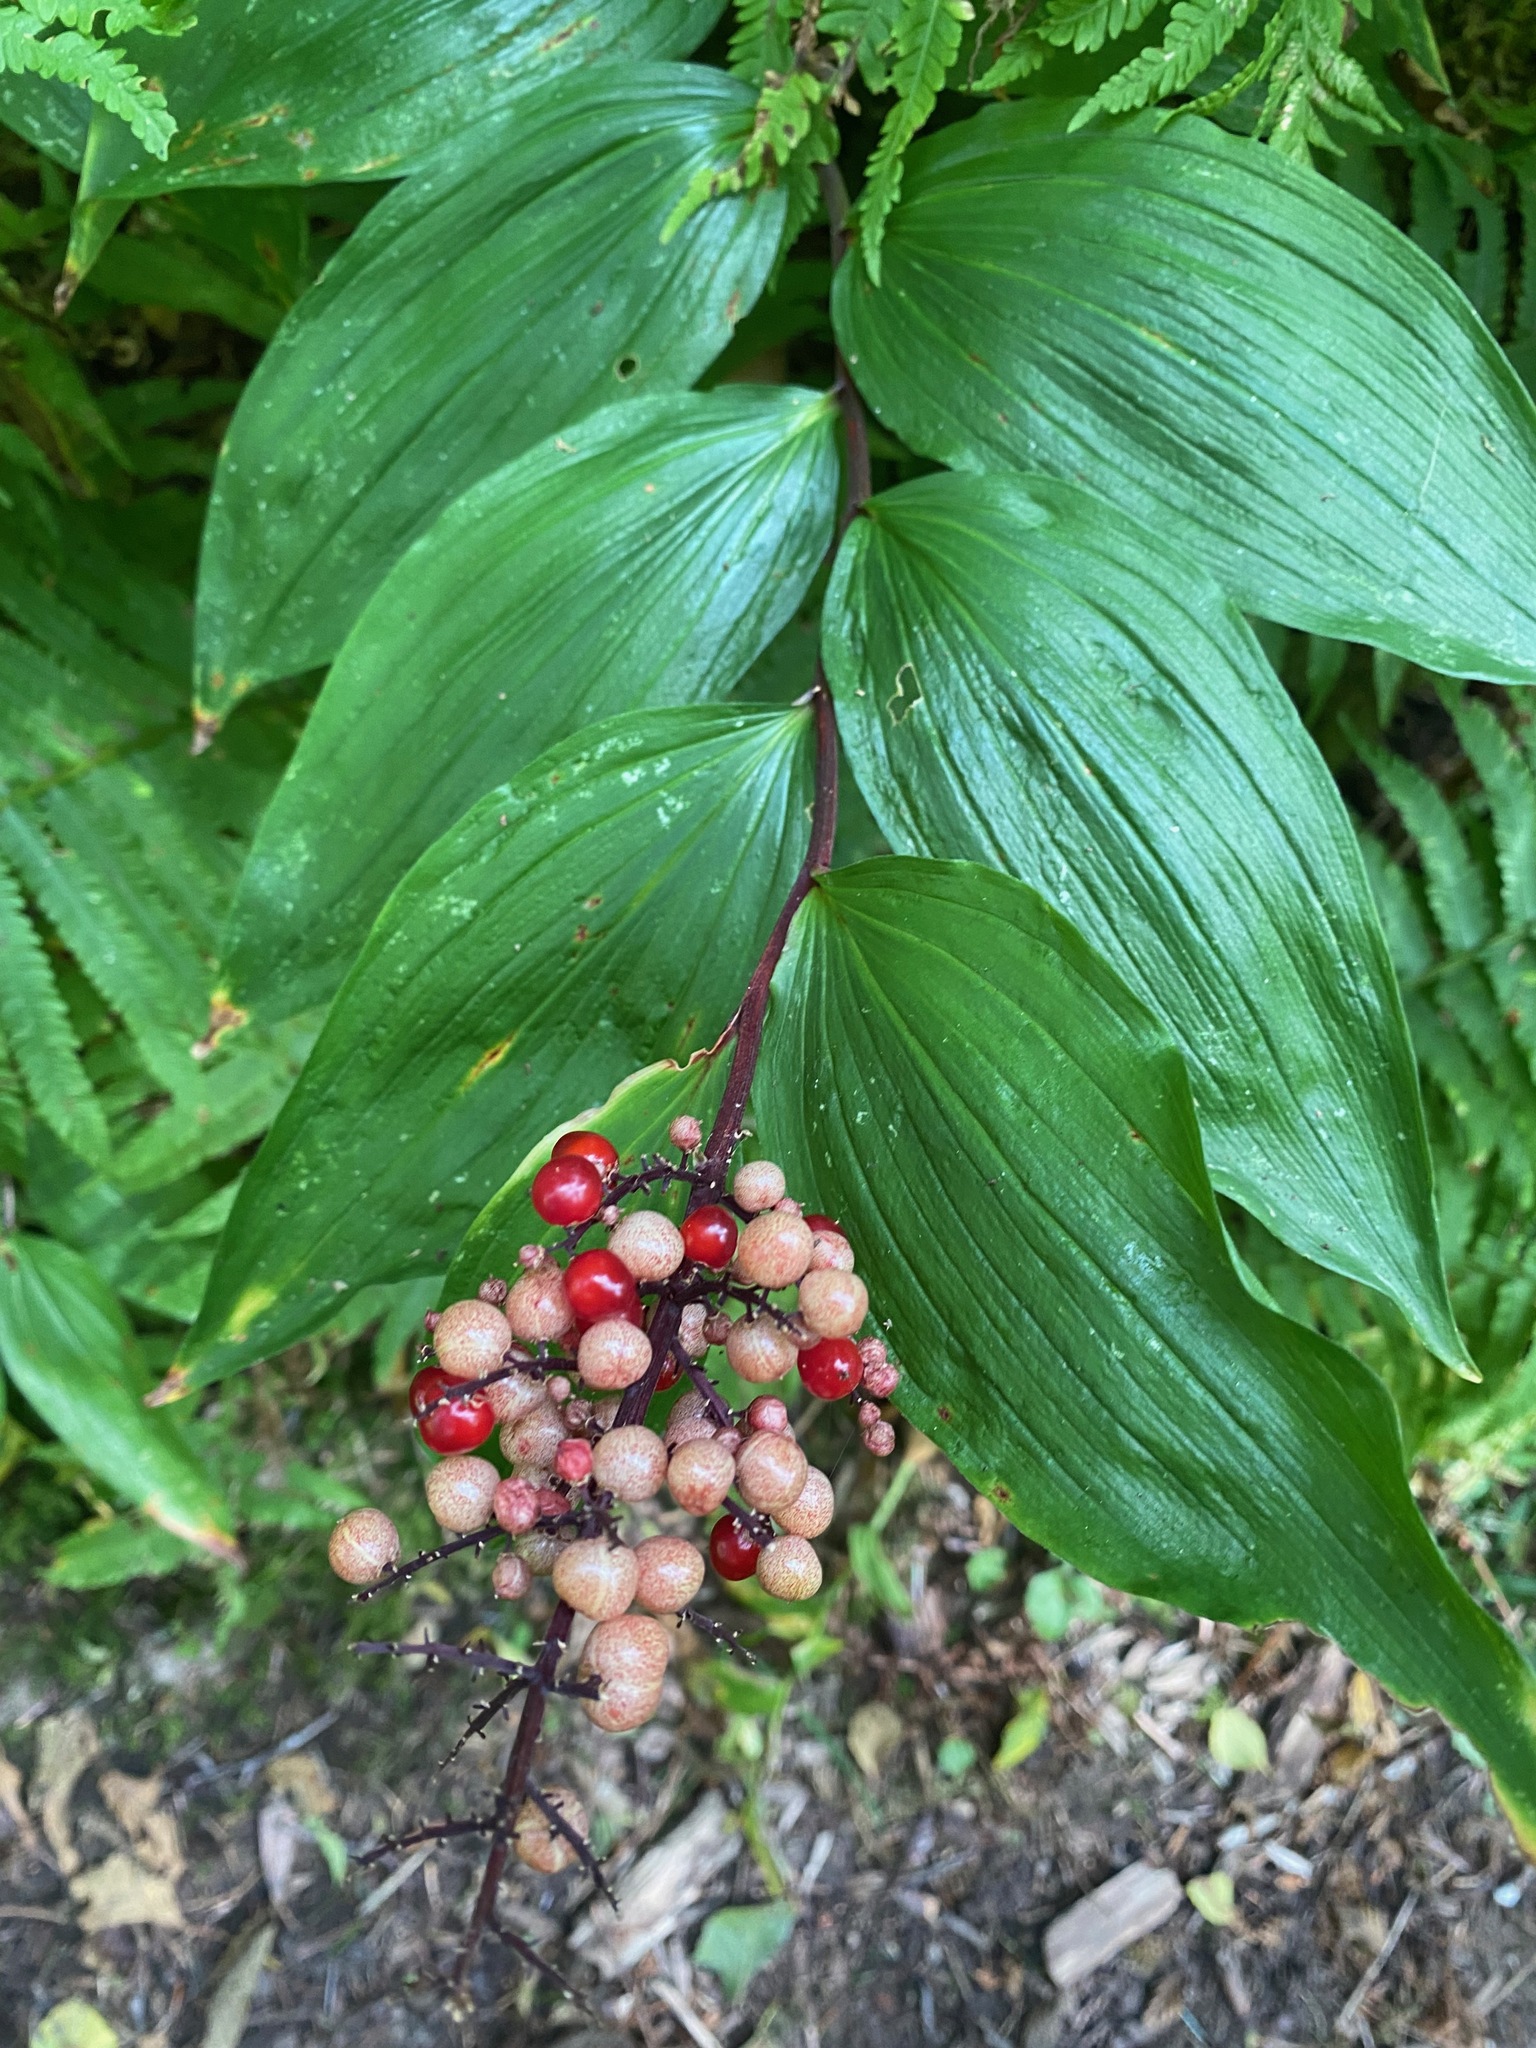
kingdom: Plantae
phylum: Tracheophyta
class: Liliopsida
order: Asparagales
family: Asparagaceae
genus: Maianthemum
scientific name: Maianthemum racemosum
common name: False spikenard
